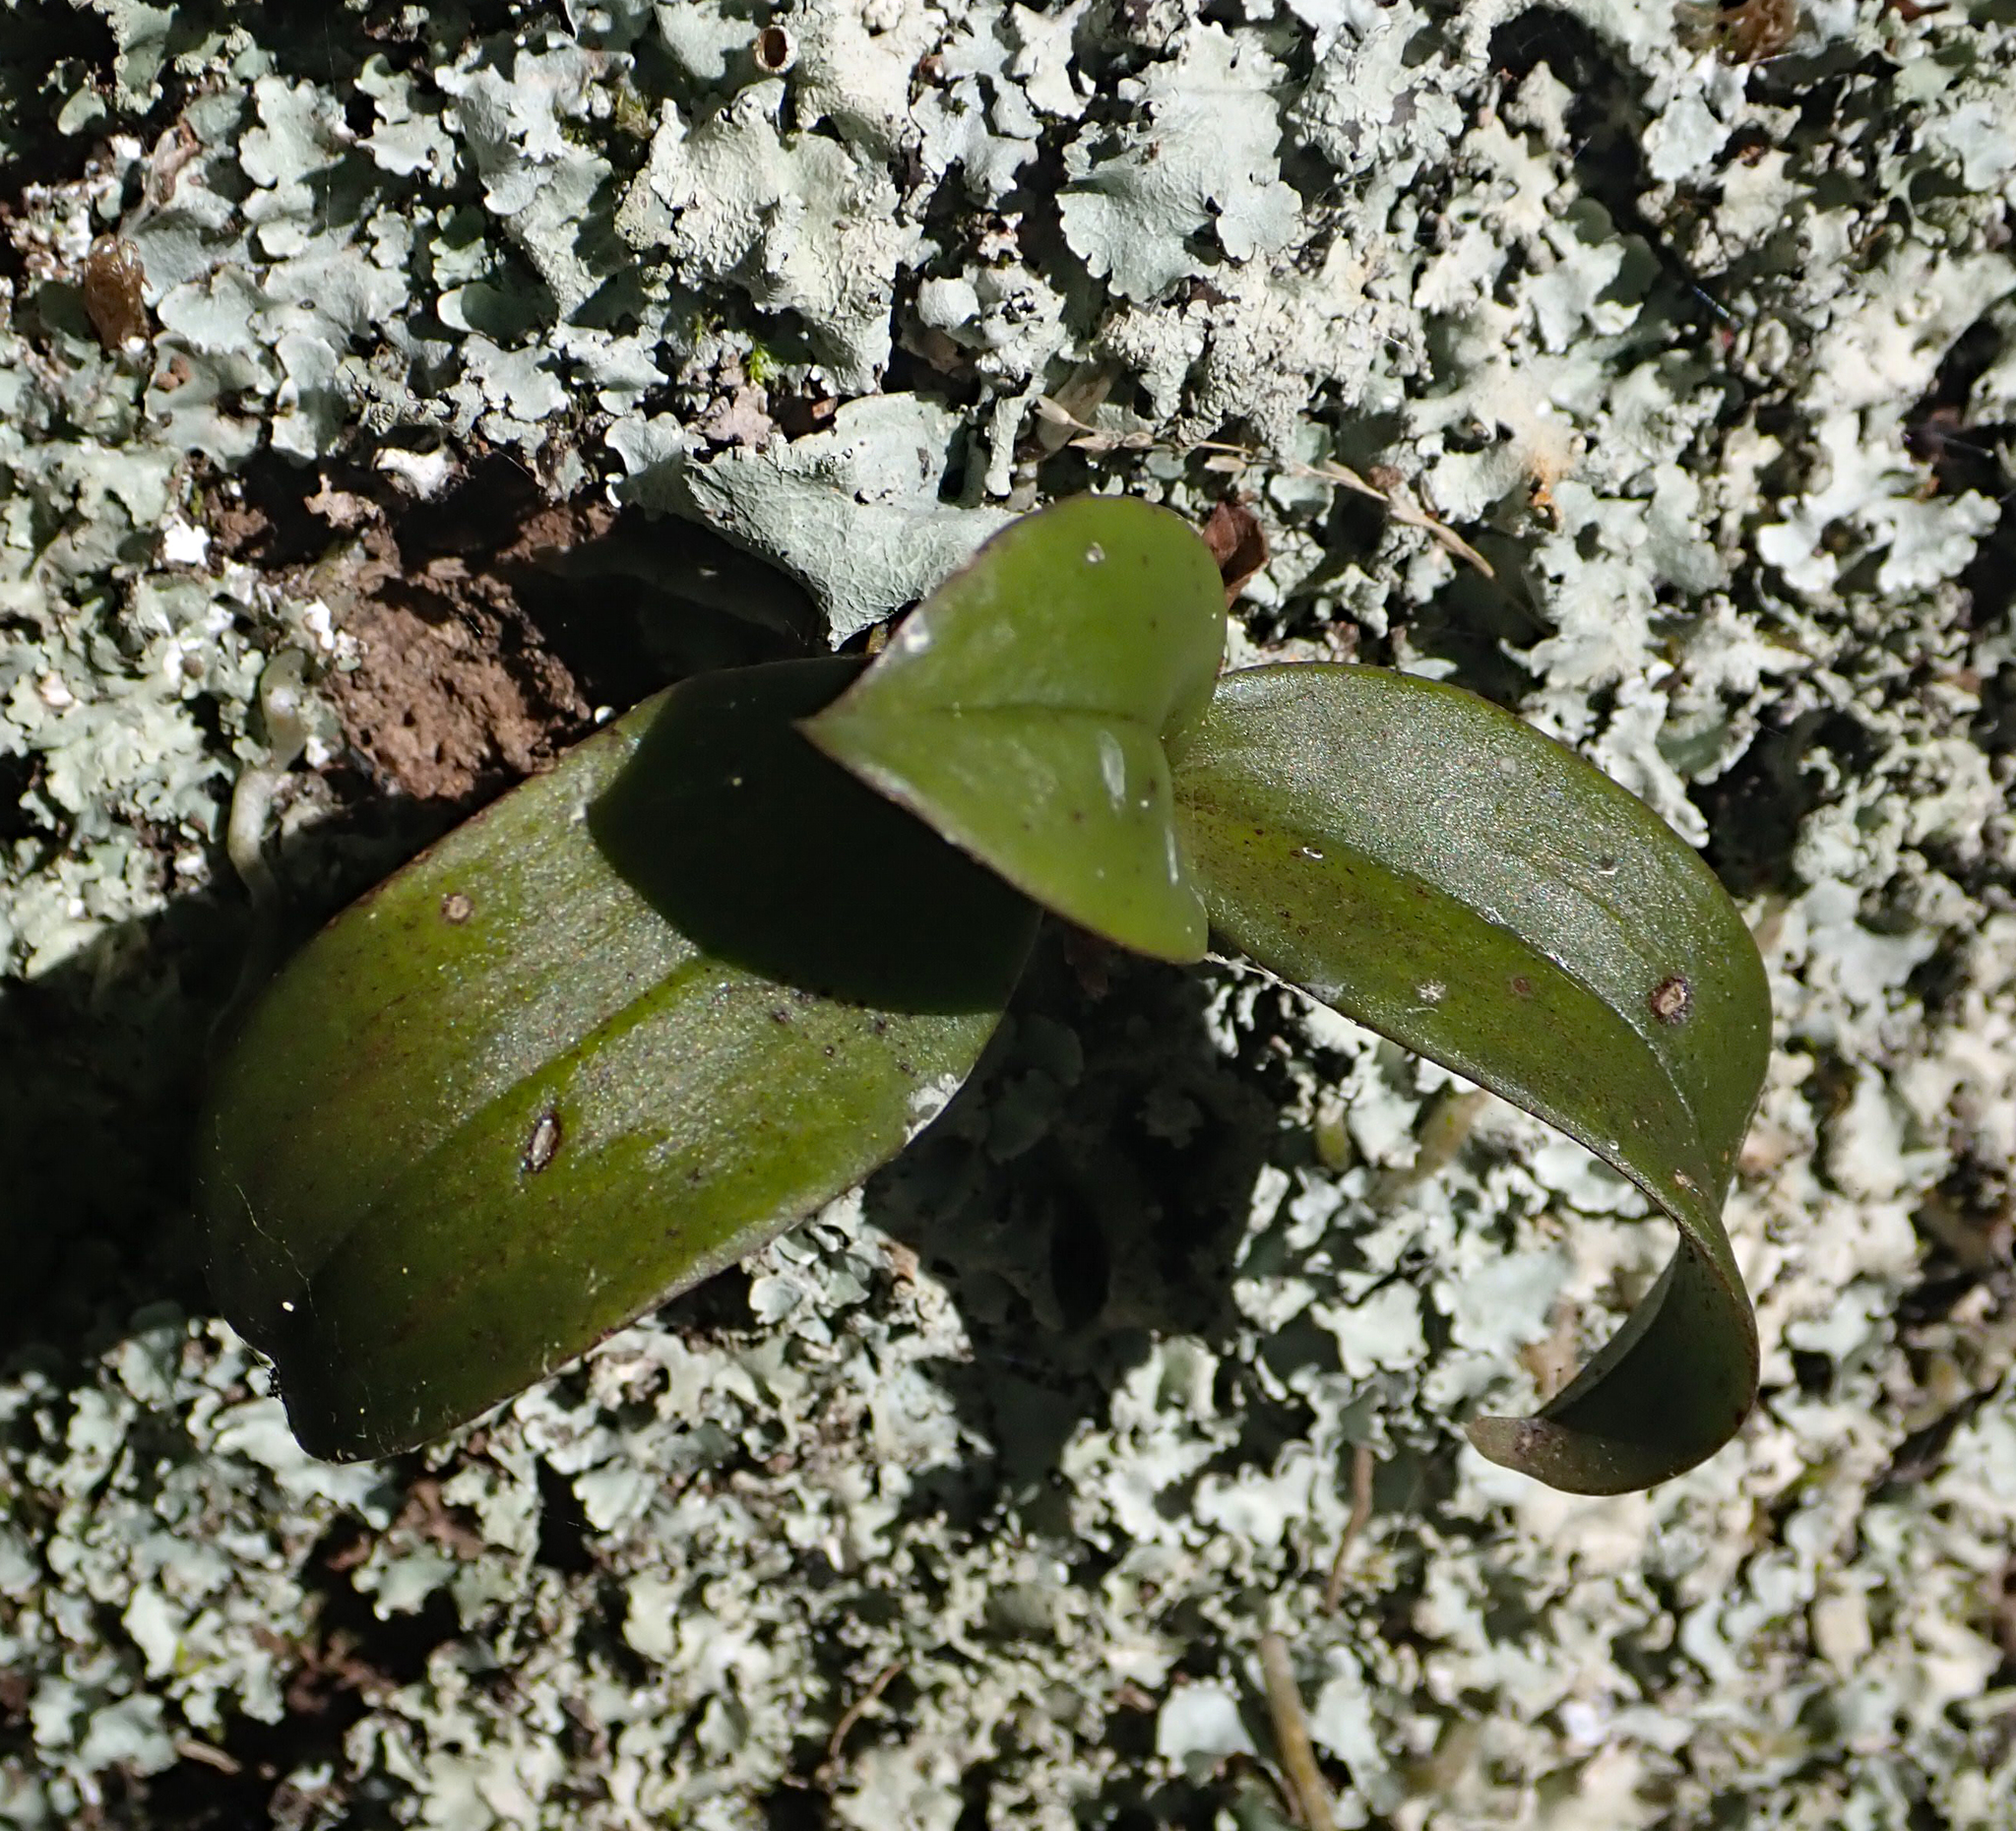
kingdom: Plantae
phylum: Tracheophyta
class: Liliopsida
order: Asparagales
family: Orchidaceae
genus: Drymoanthus
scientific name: Drymoanthus adversus
